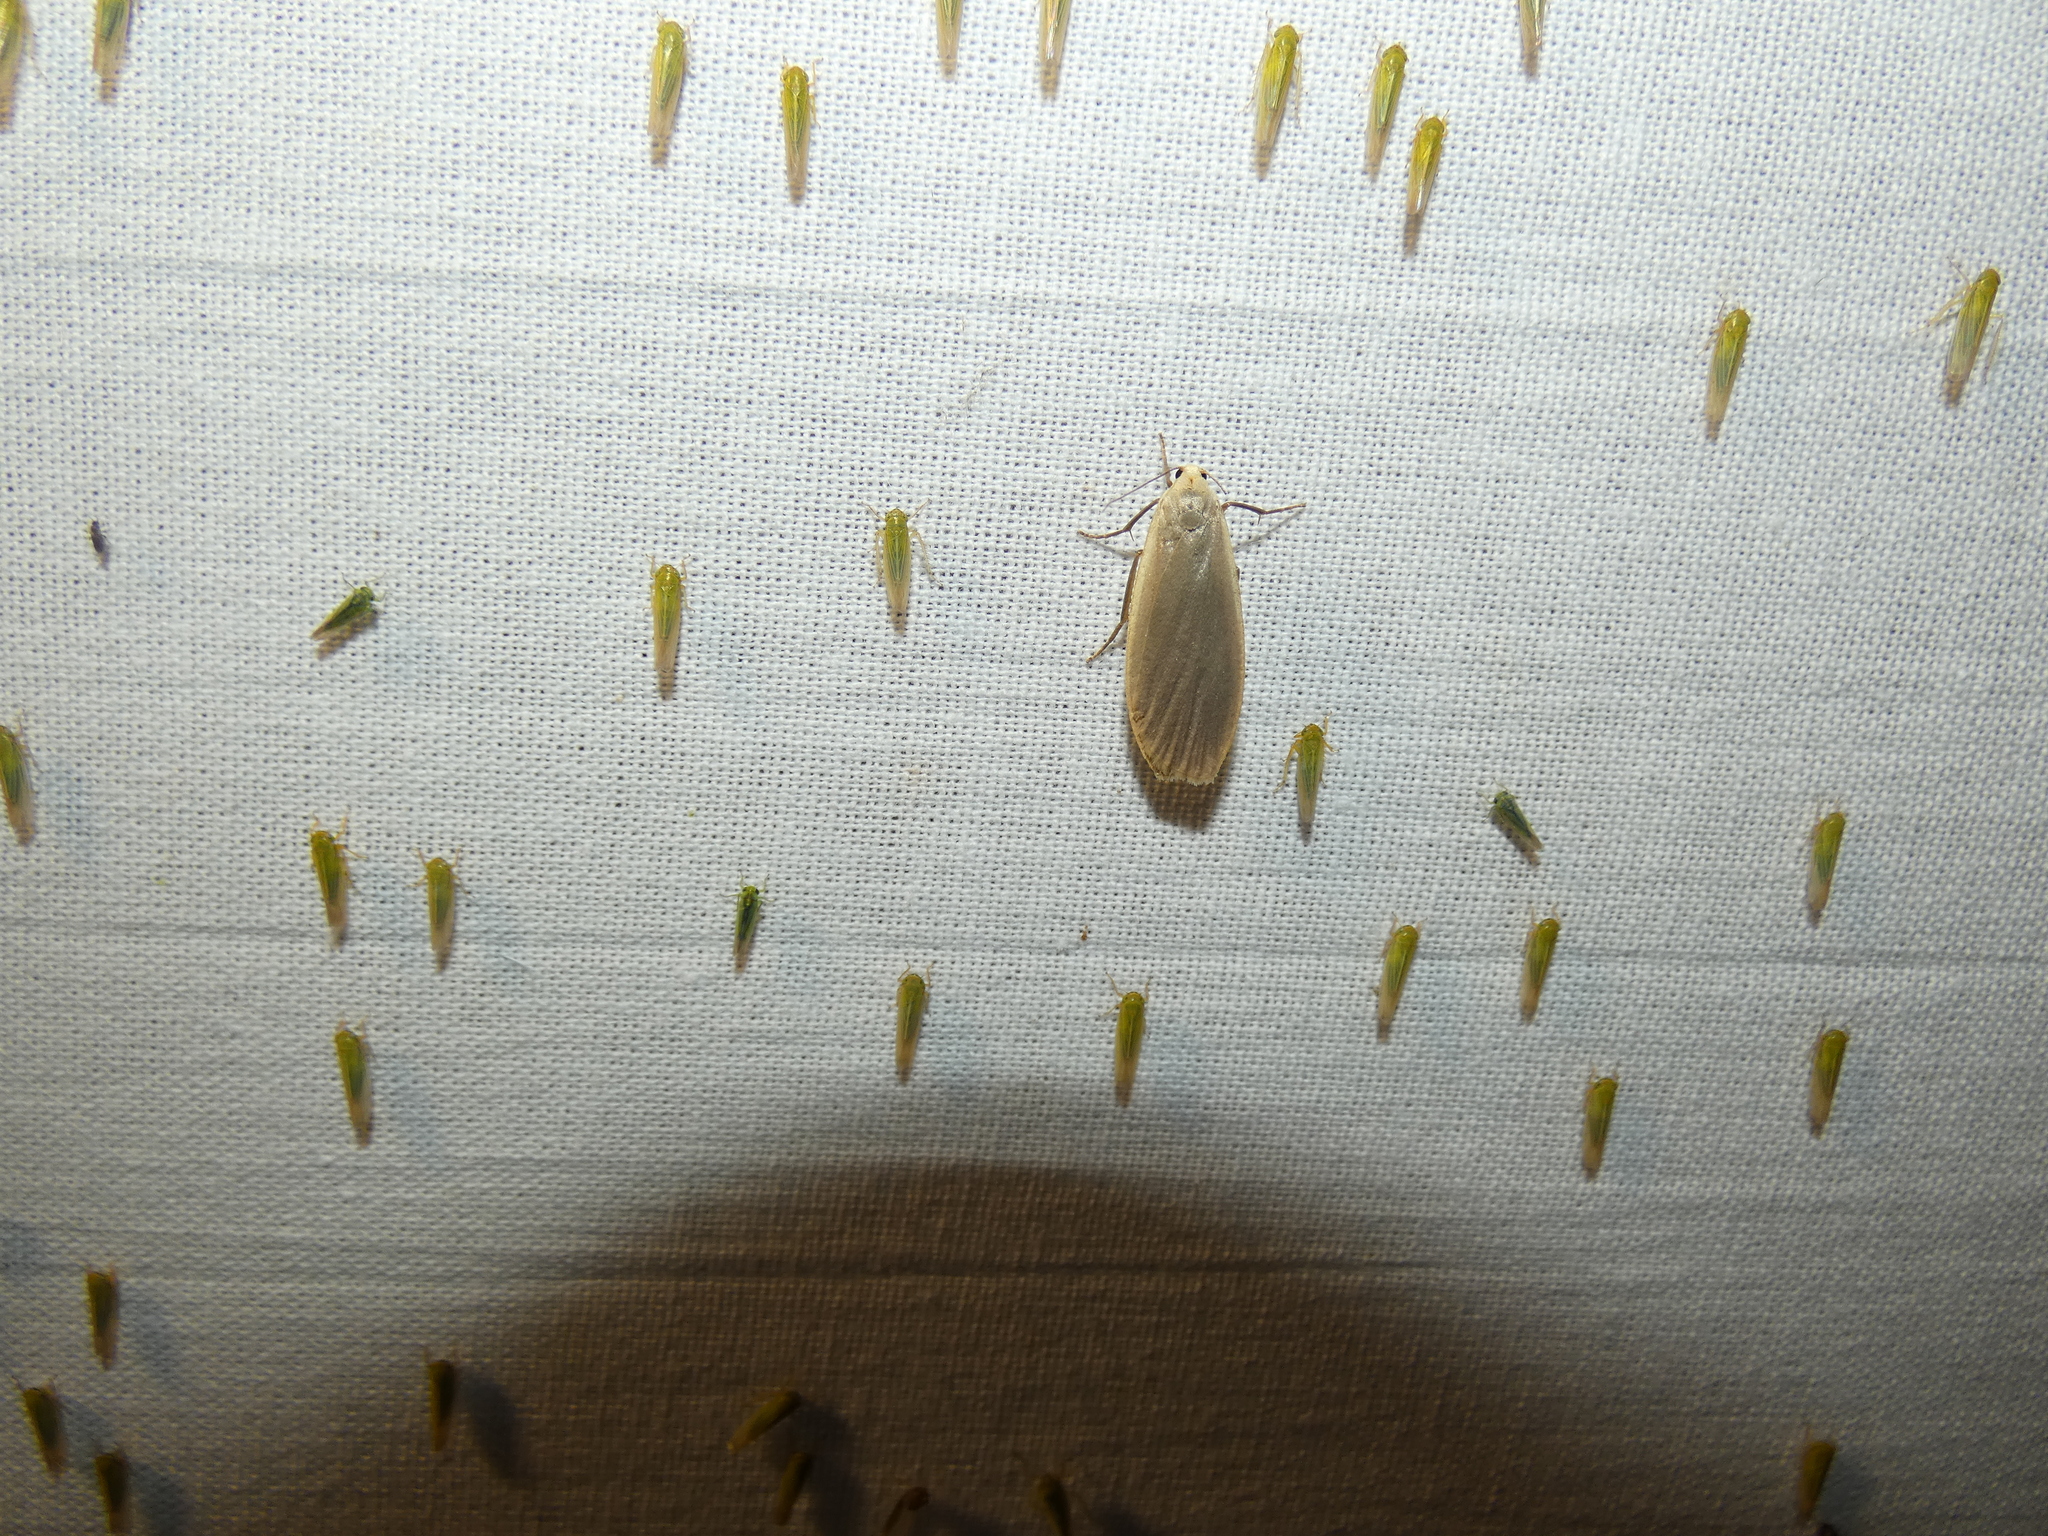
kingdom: Animalia
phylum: Arthropoda
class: Insecta
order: Lepidoptera
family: Erebidae
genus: Collita
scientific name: Collita griseola
